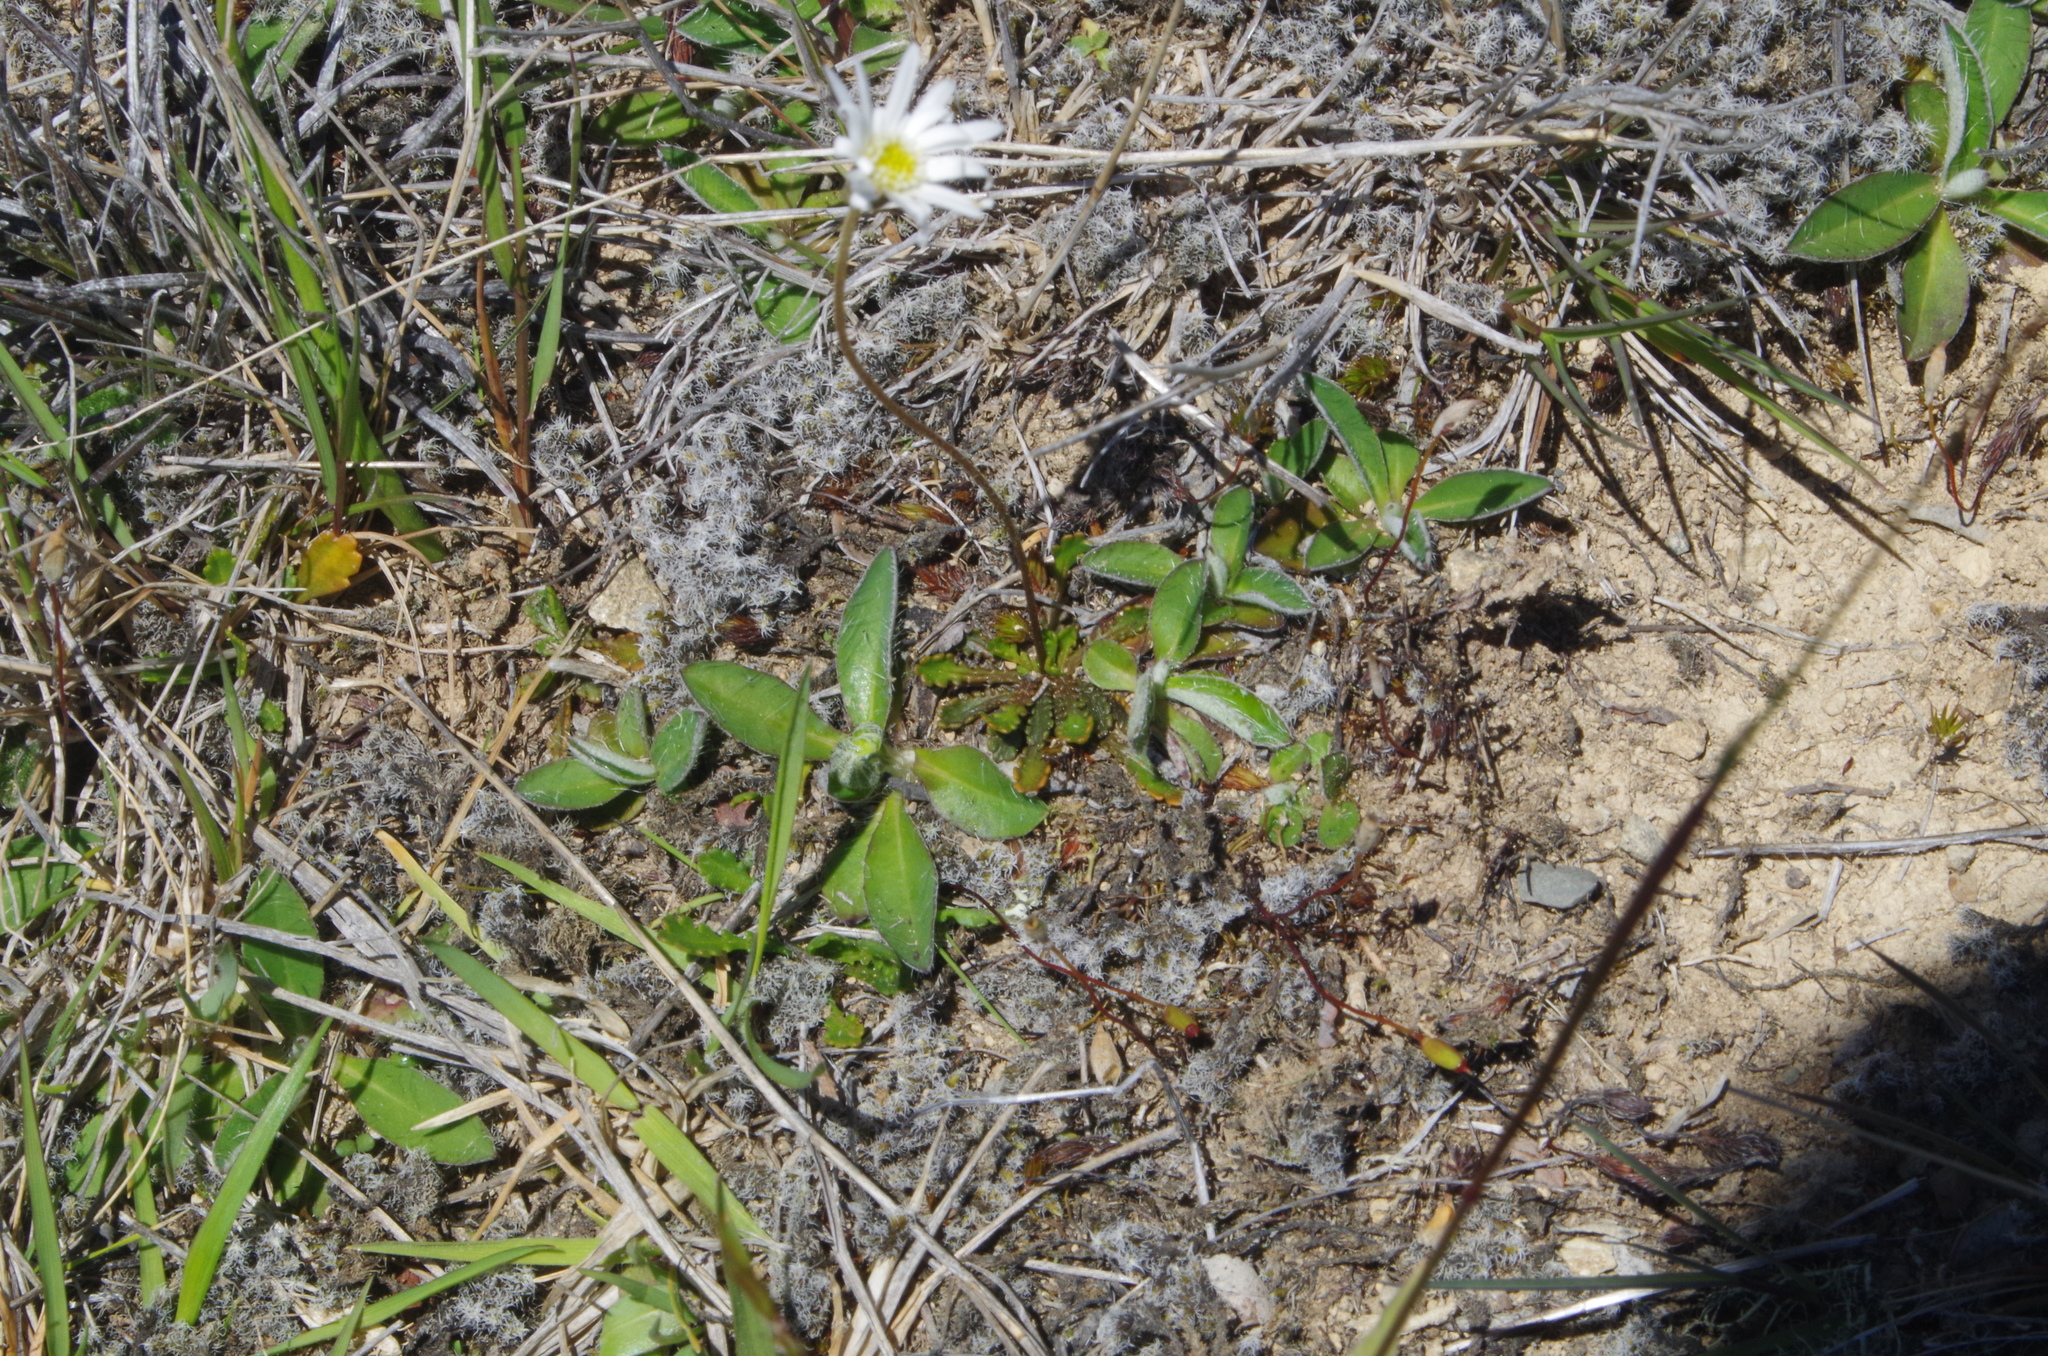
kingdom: Plantae
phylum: Tracheophyta
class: Magnoliopsida
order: Asterales
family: Asteraceae
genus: Brachyscome
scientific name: Brachyscome sinclairii
